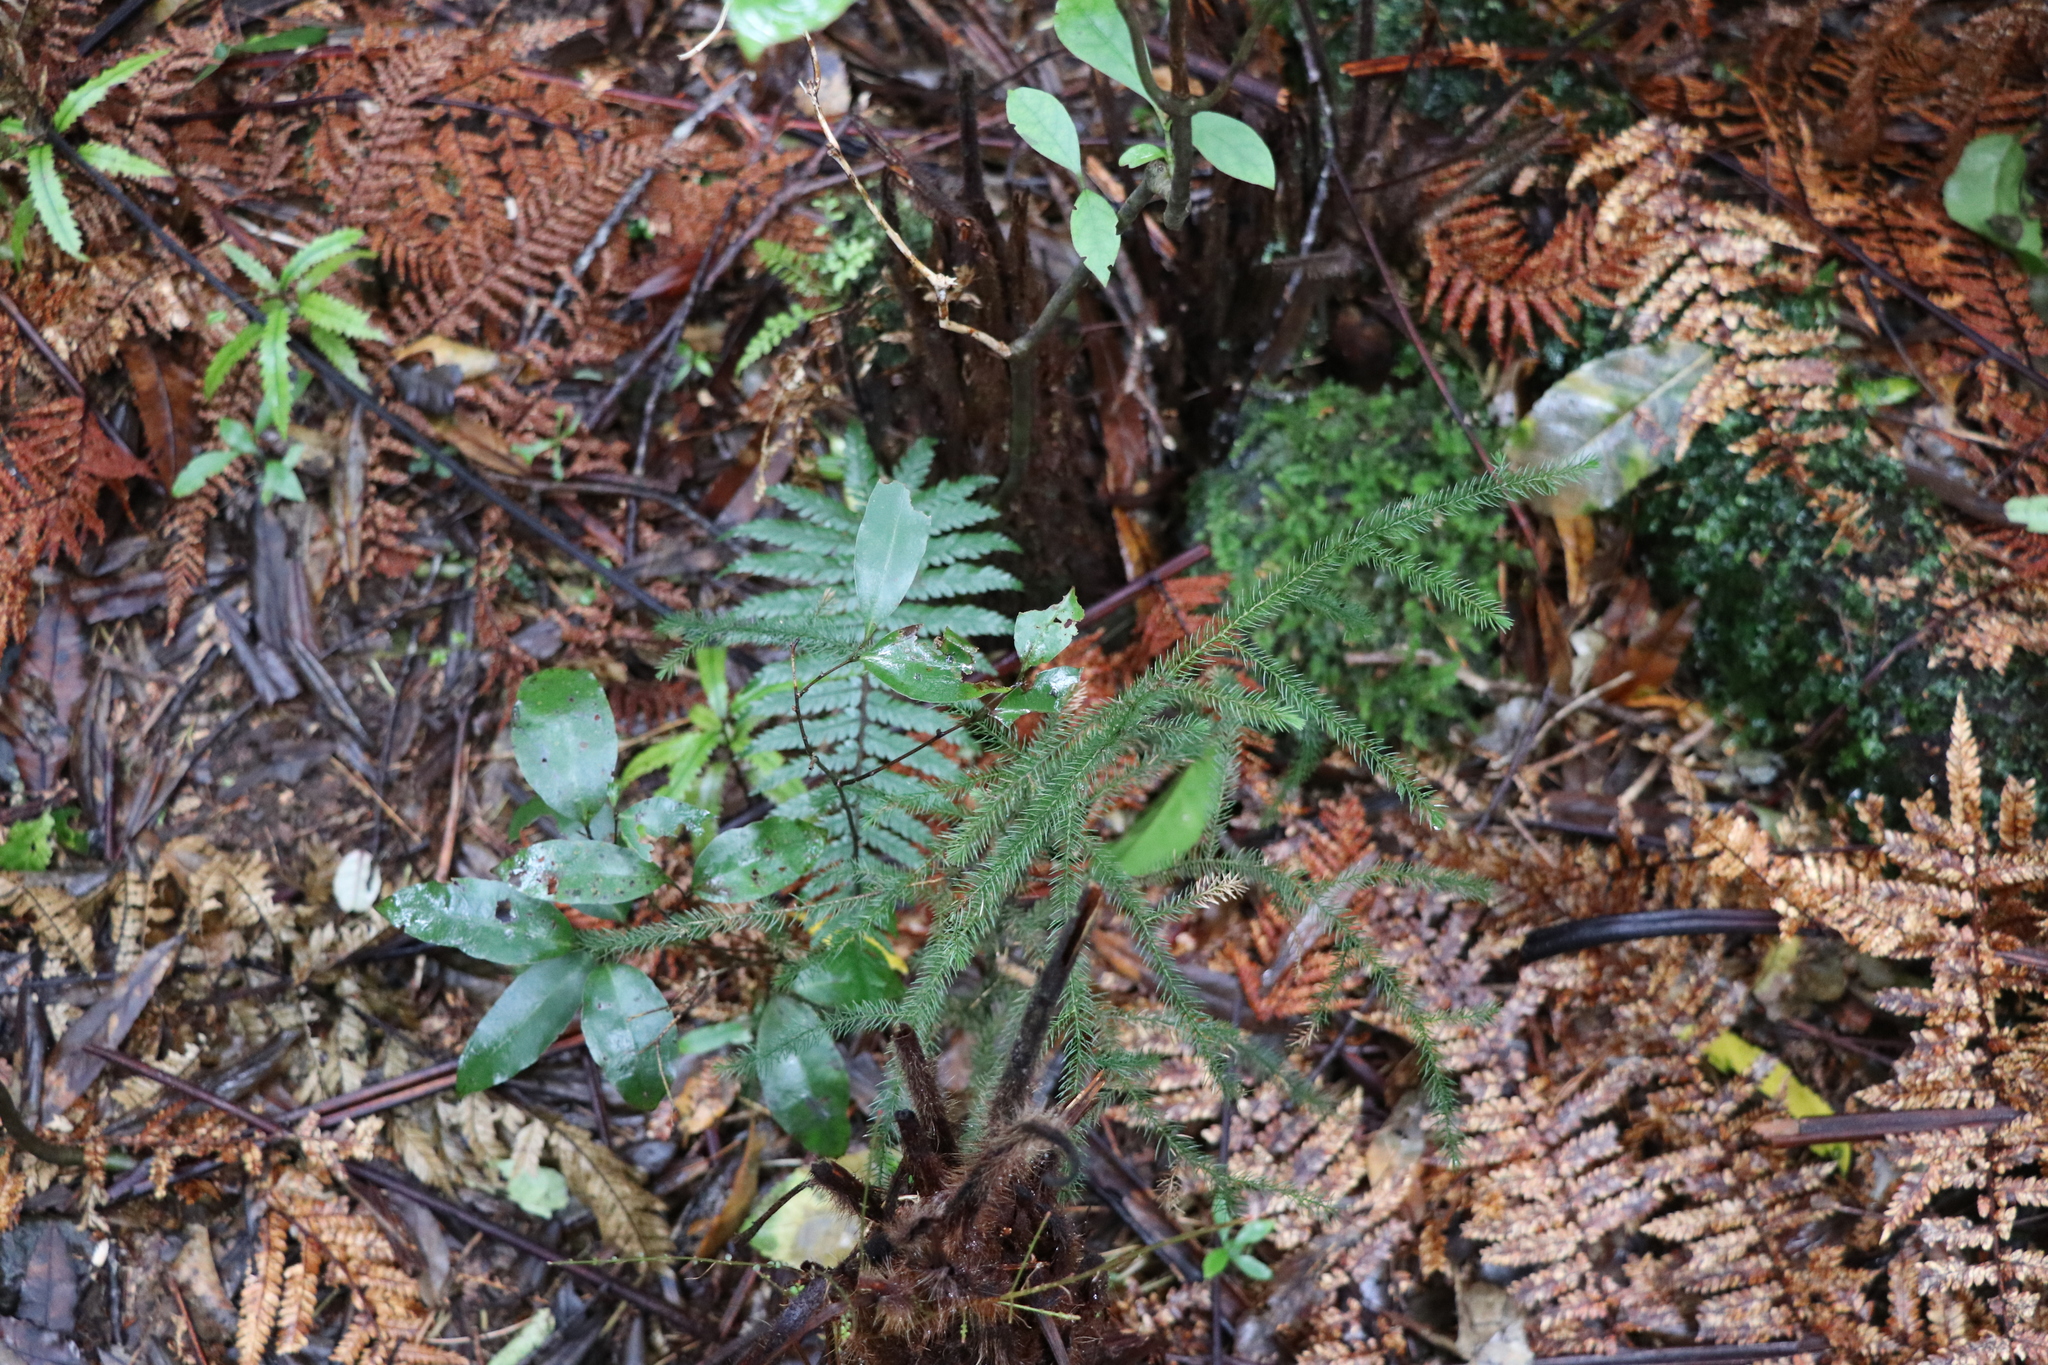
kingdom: Plantae
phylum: Tracheophyta
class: Pinopsida
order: Pinales
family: Podocarpaceae
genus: Dacrydium
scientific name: Dacrydium cupressinum
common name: Red pine
